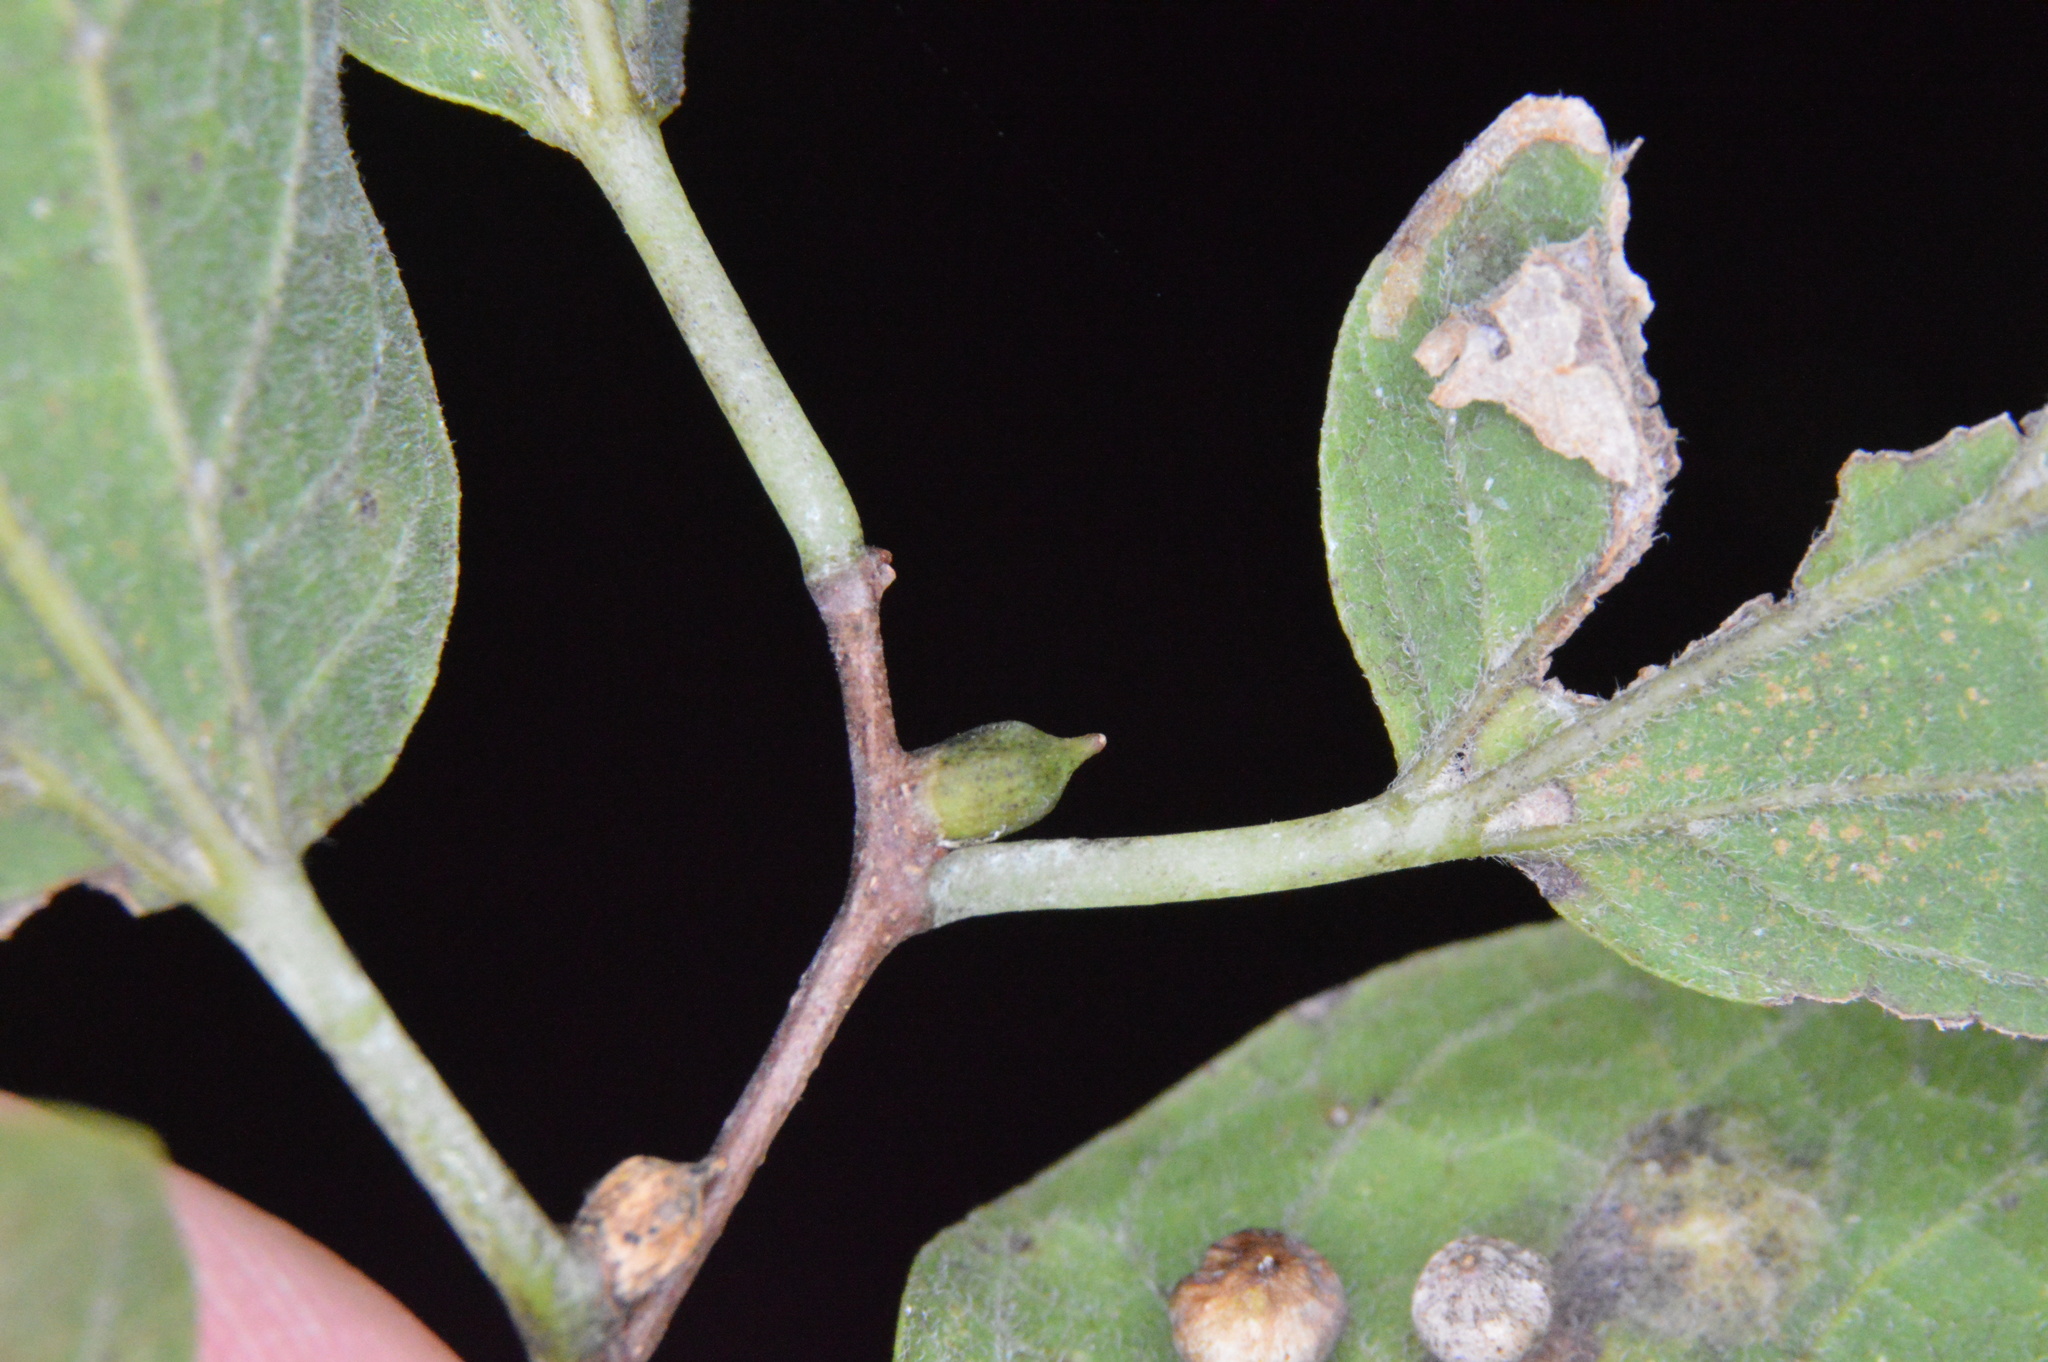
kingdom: Animalia
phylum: Arthropoda
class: Insecta
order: Diptera
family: Cecidomyiidae
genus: Celticecis
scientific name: Celticecis ramicola
